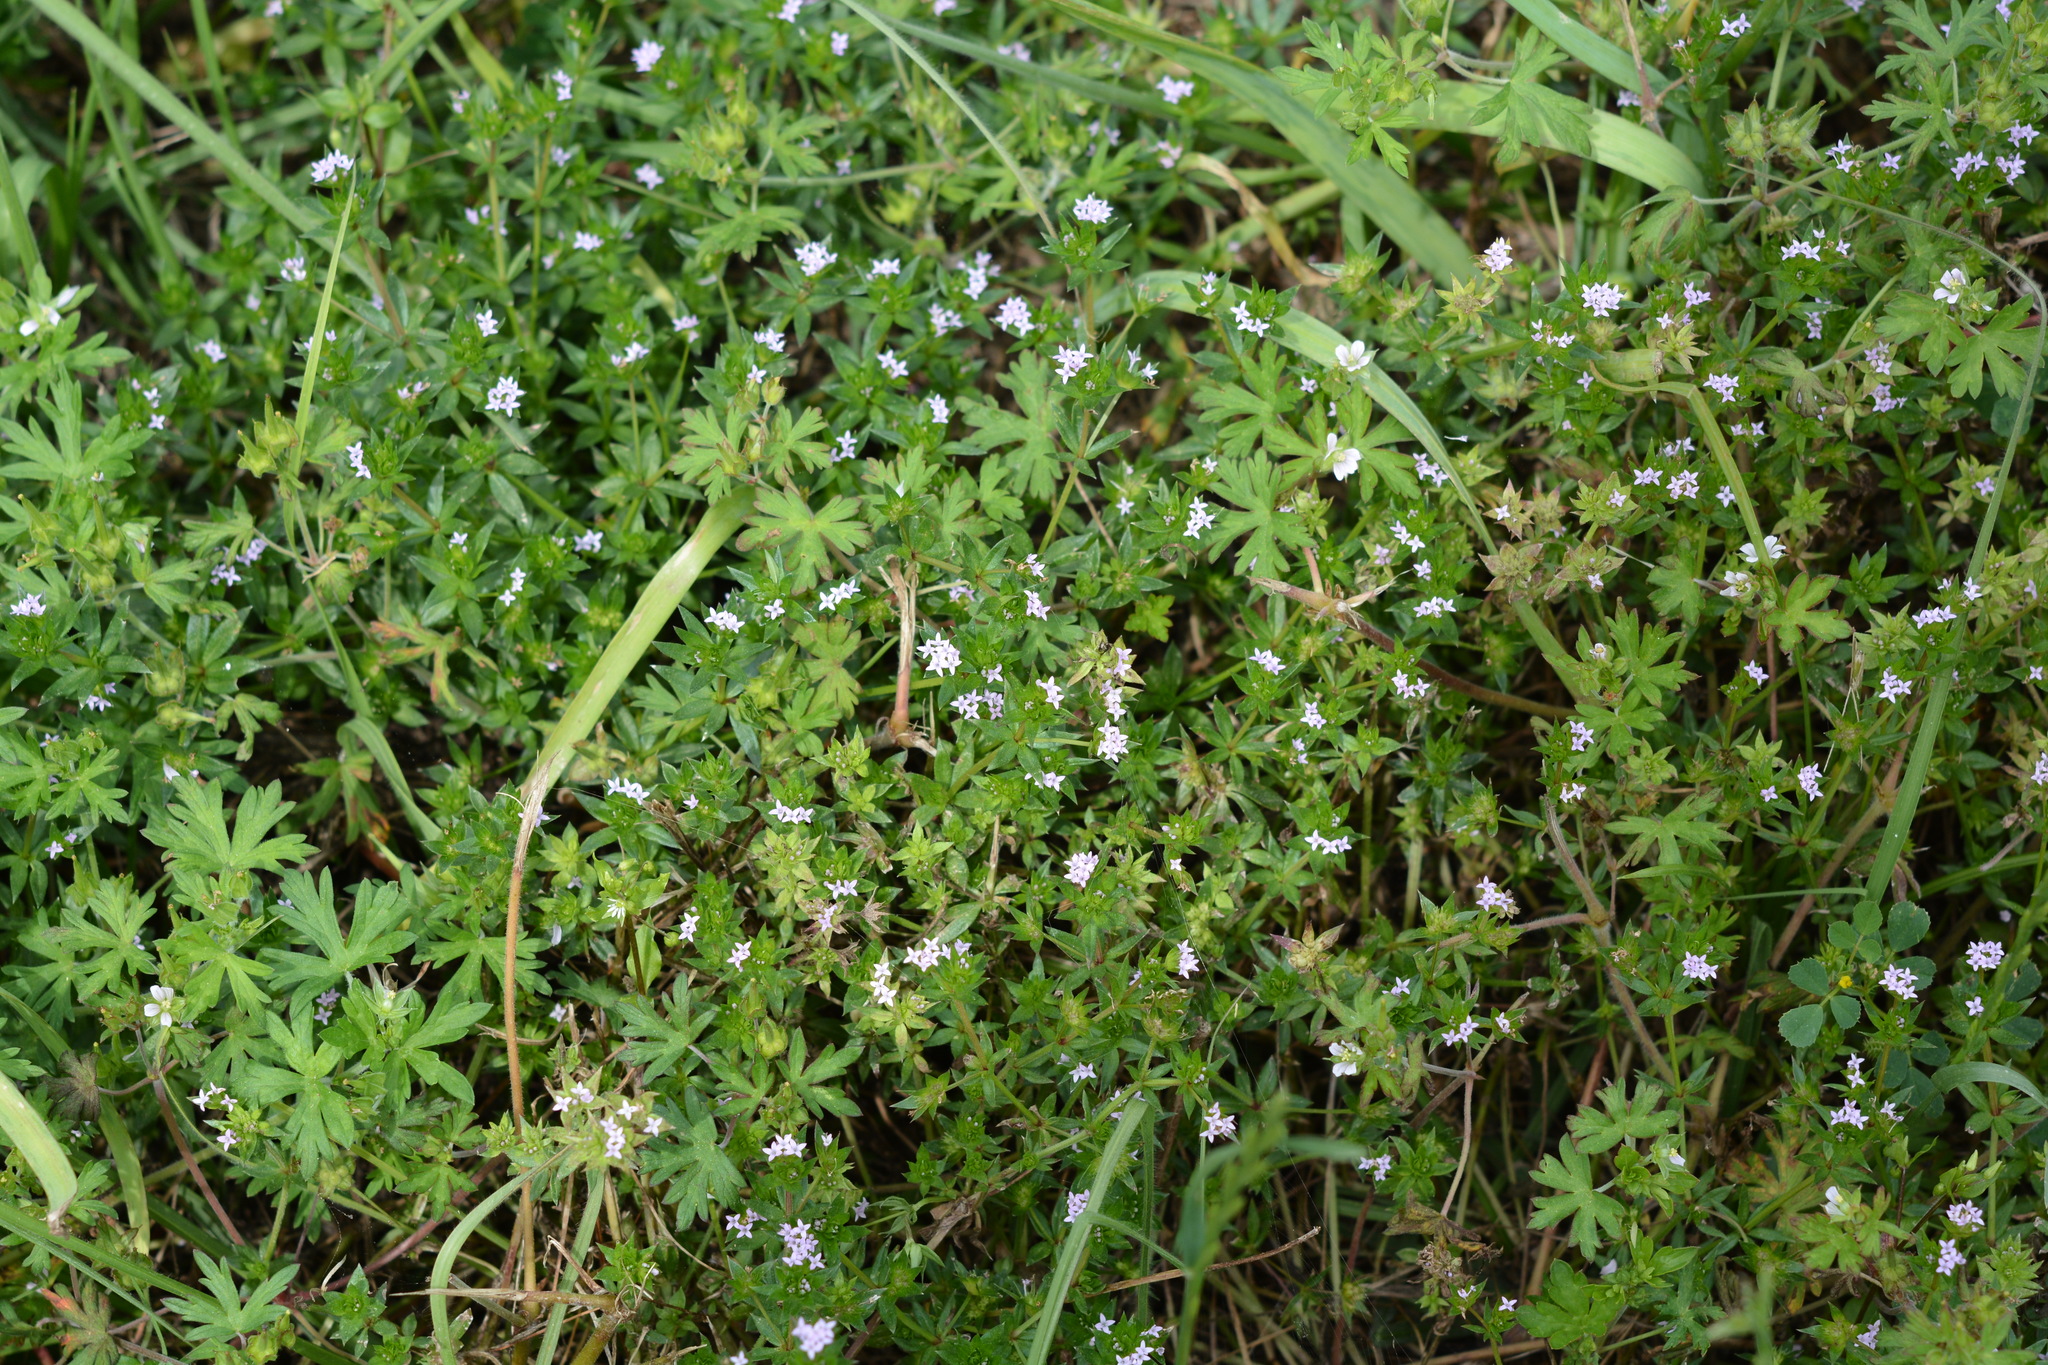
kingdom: Plantae
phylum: Tracheophyta
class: Magnoliopsida
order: Gentianales
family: Rubiaceae
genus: Sherardia
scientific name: Sherardia arvensis
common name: Field madder
